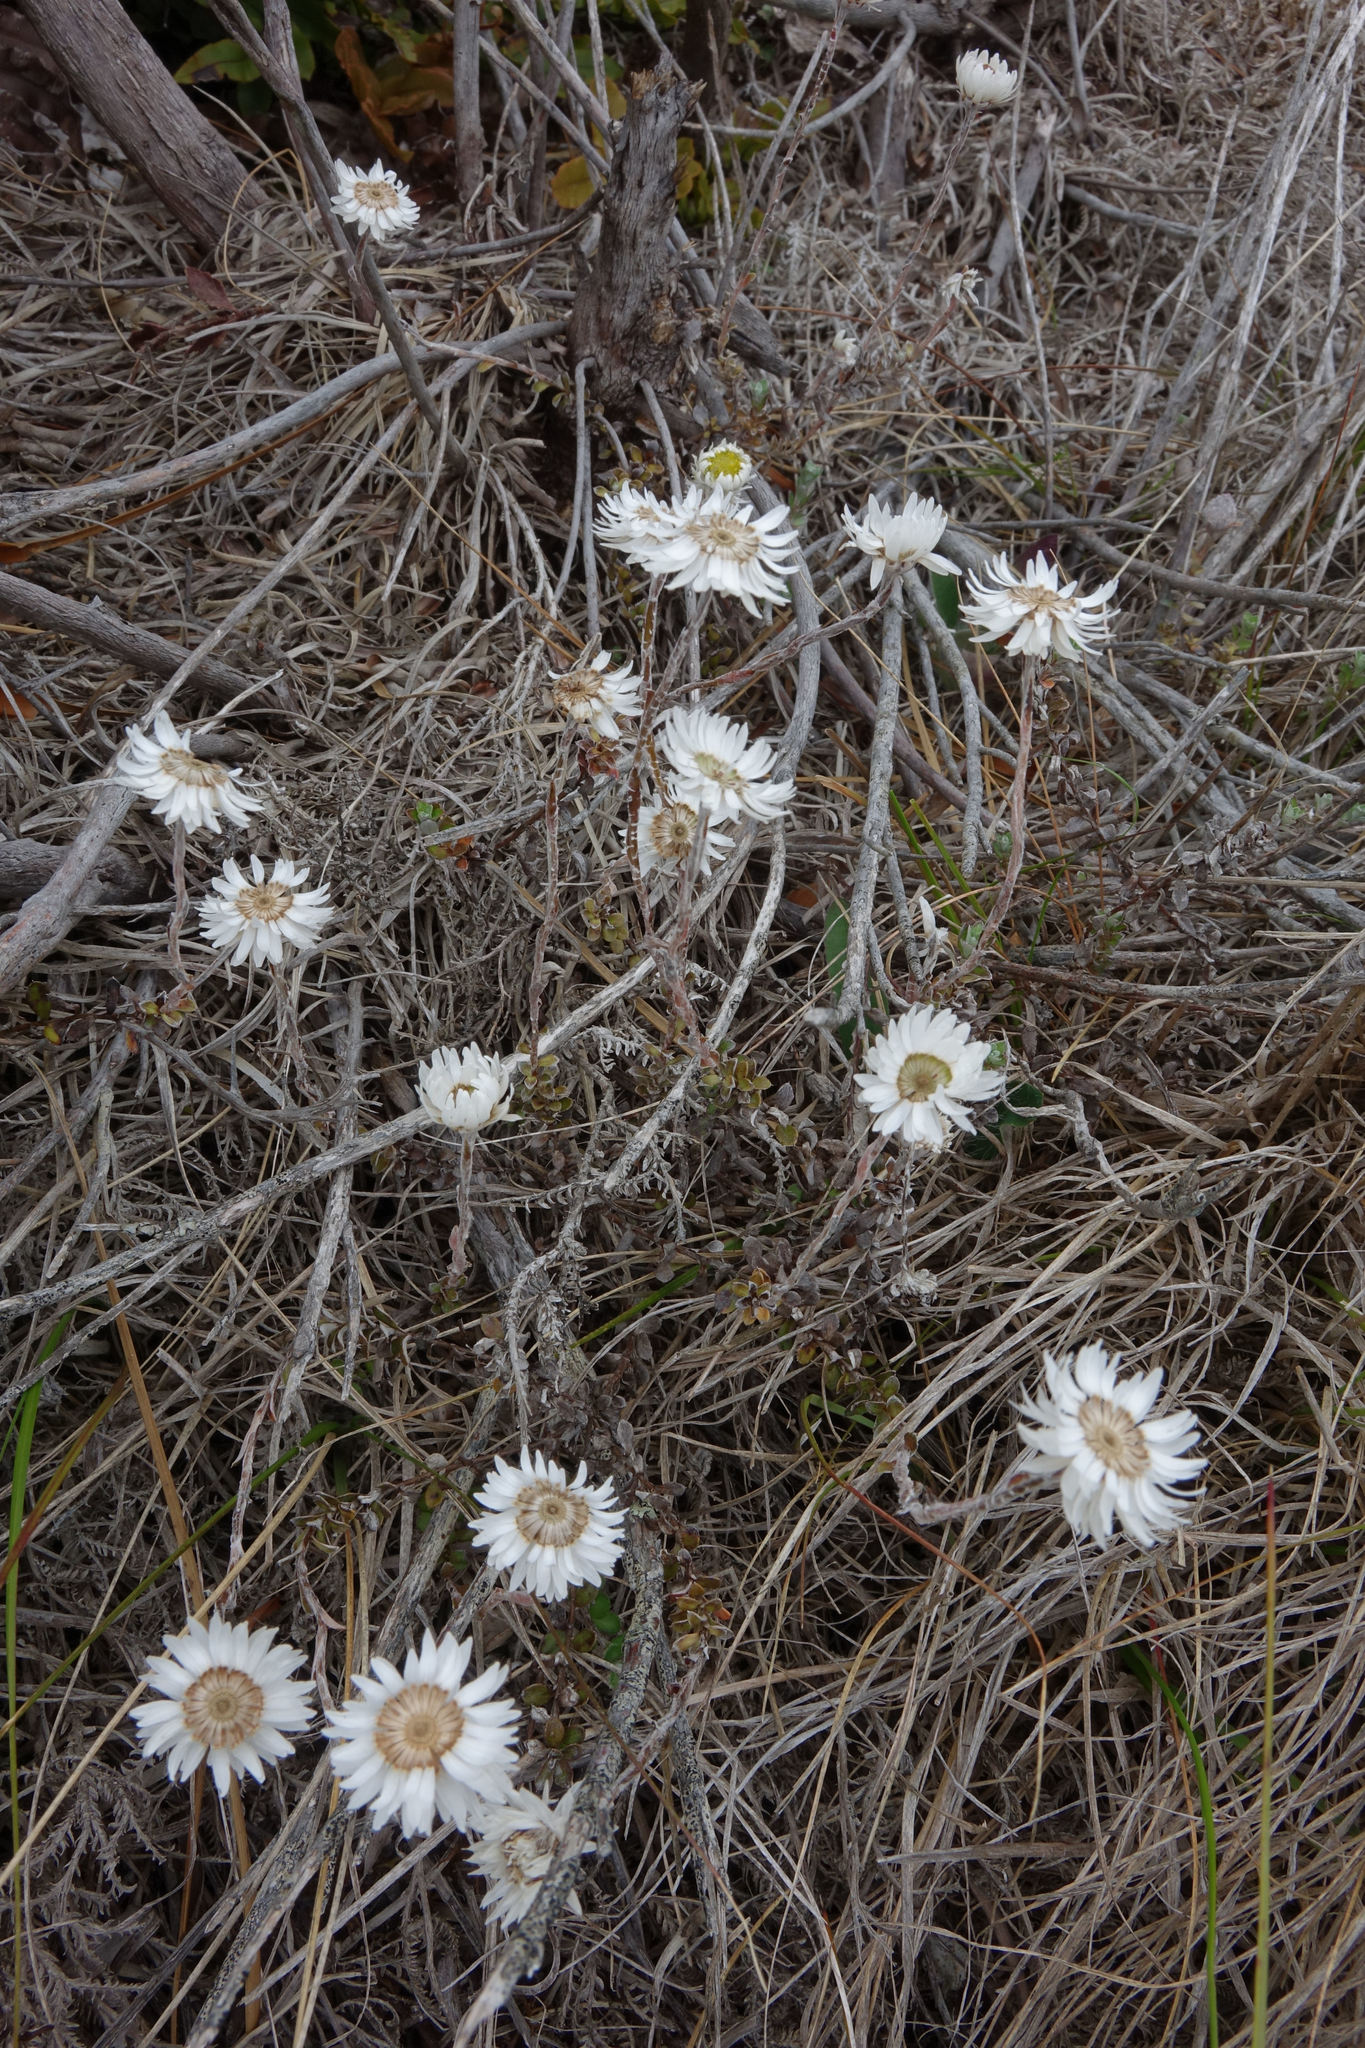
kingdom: Plantae
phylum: Tracheophyta
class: Magnoliopsida
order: Asterales
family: Asteraceae
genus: Anaphalioides
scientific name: Anaphalioides bellidioides
